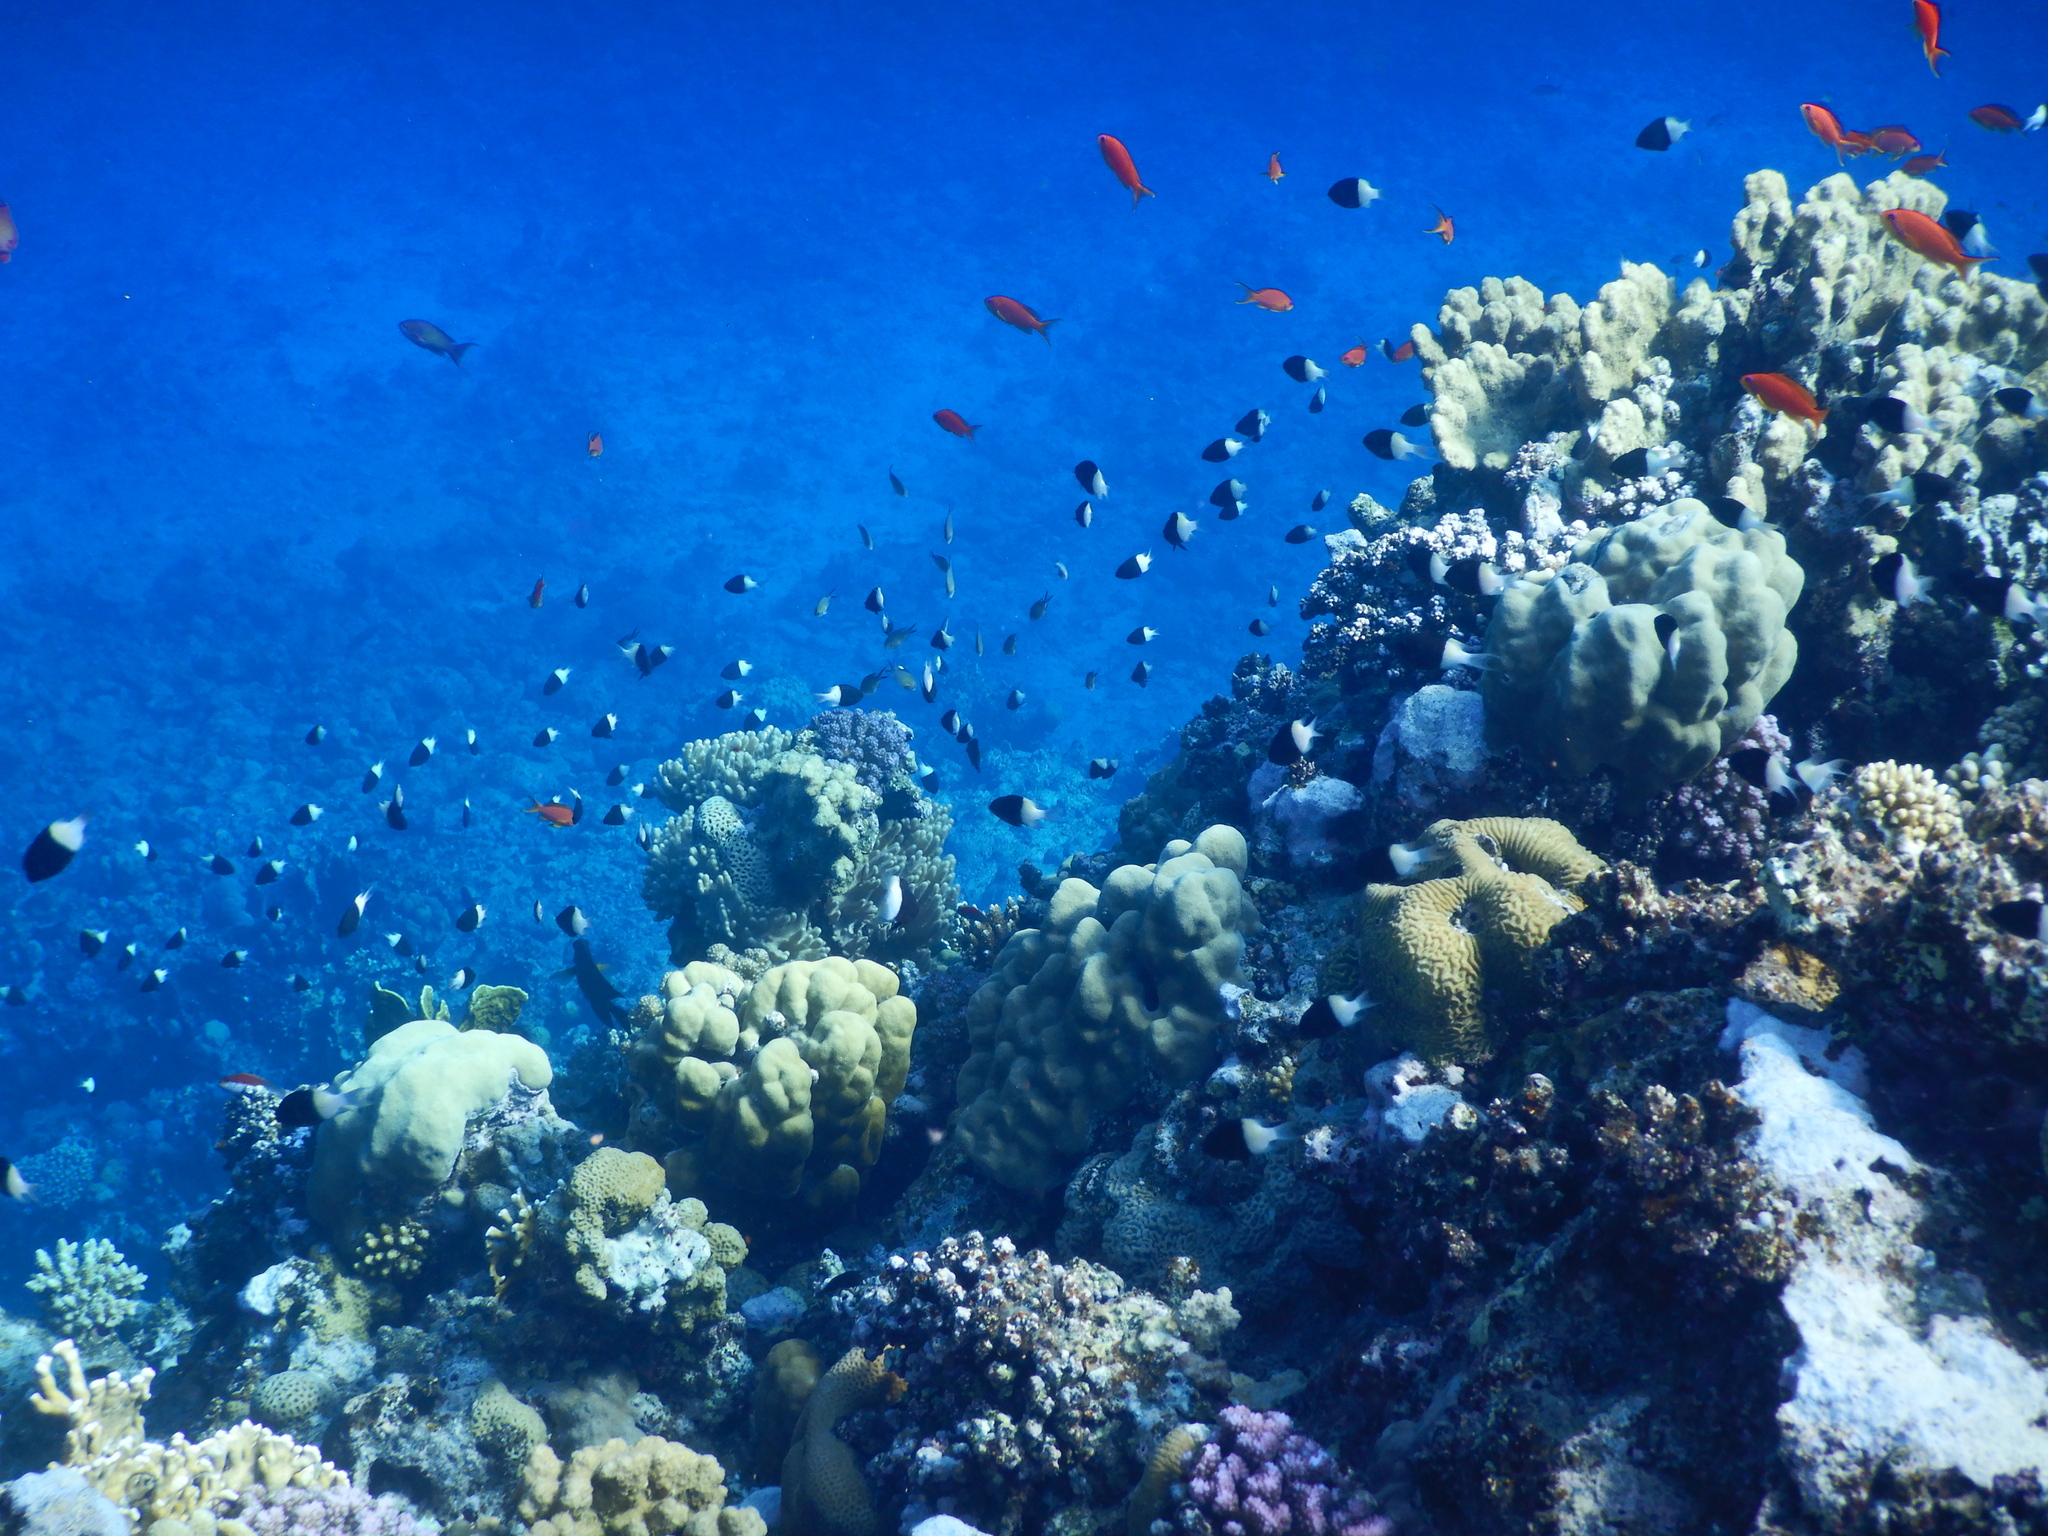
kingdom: Animalia
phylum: Chordata
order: Perciformes
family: Serranidae
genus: Pseudanthias
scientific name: Pseudanthias squamipinnis
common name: Scalefin anthias
